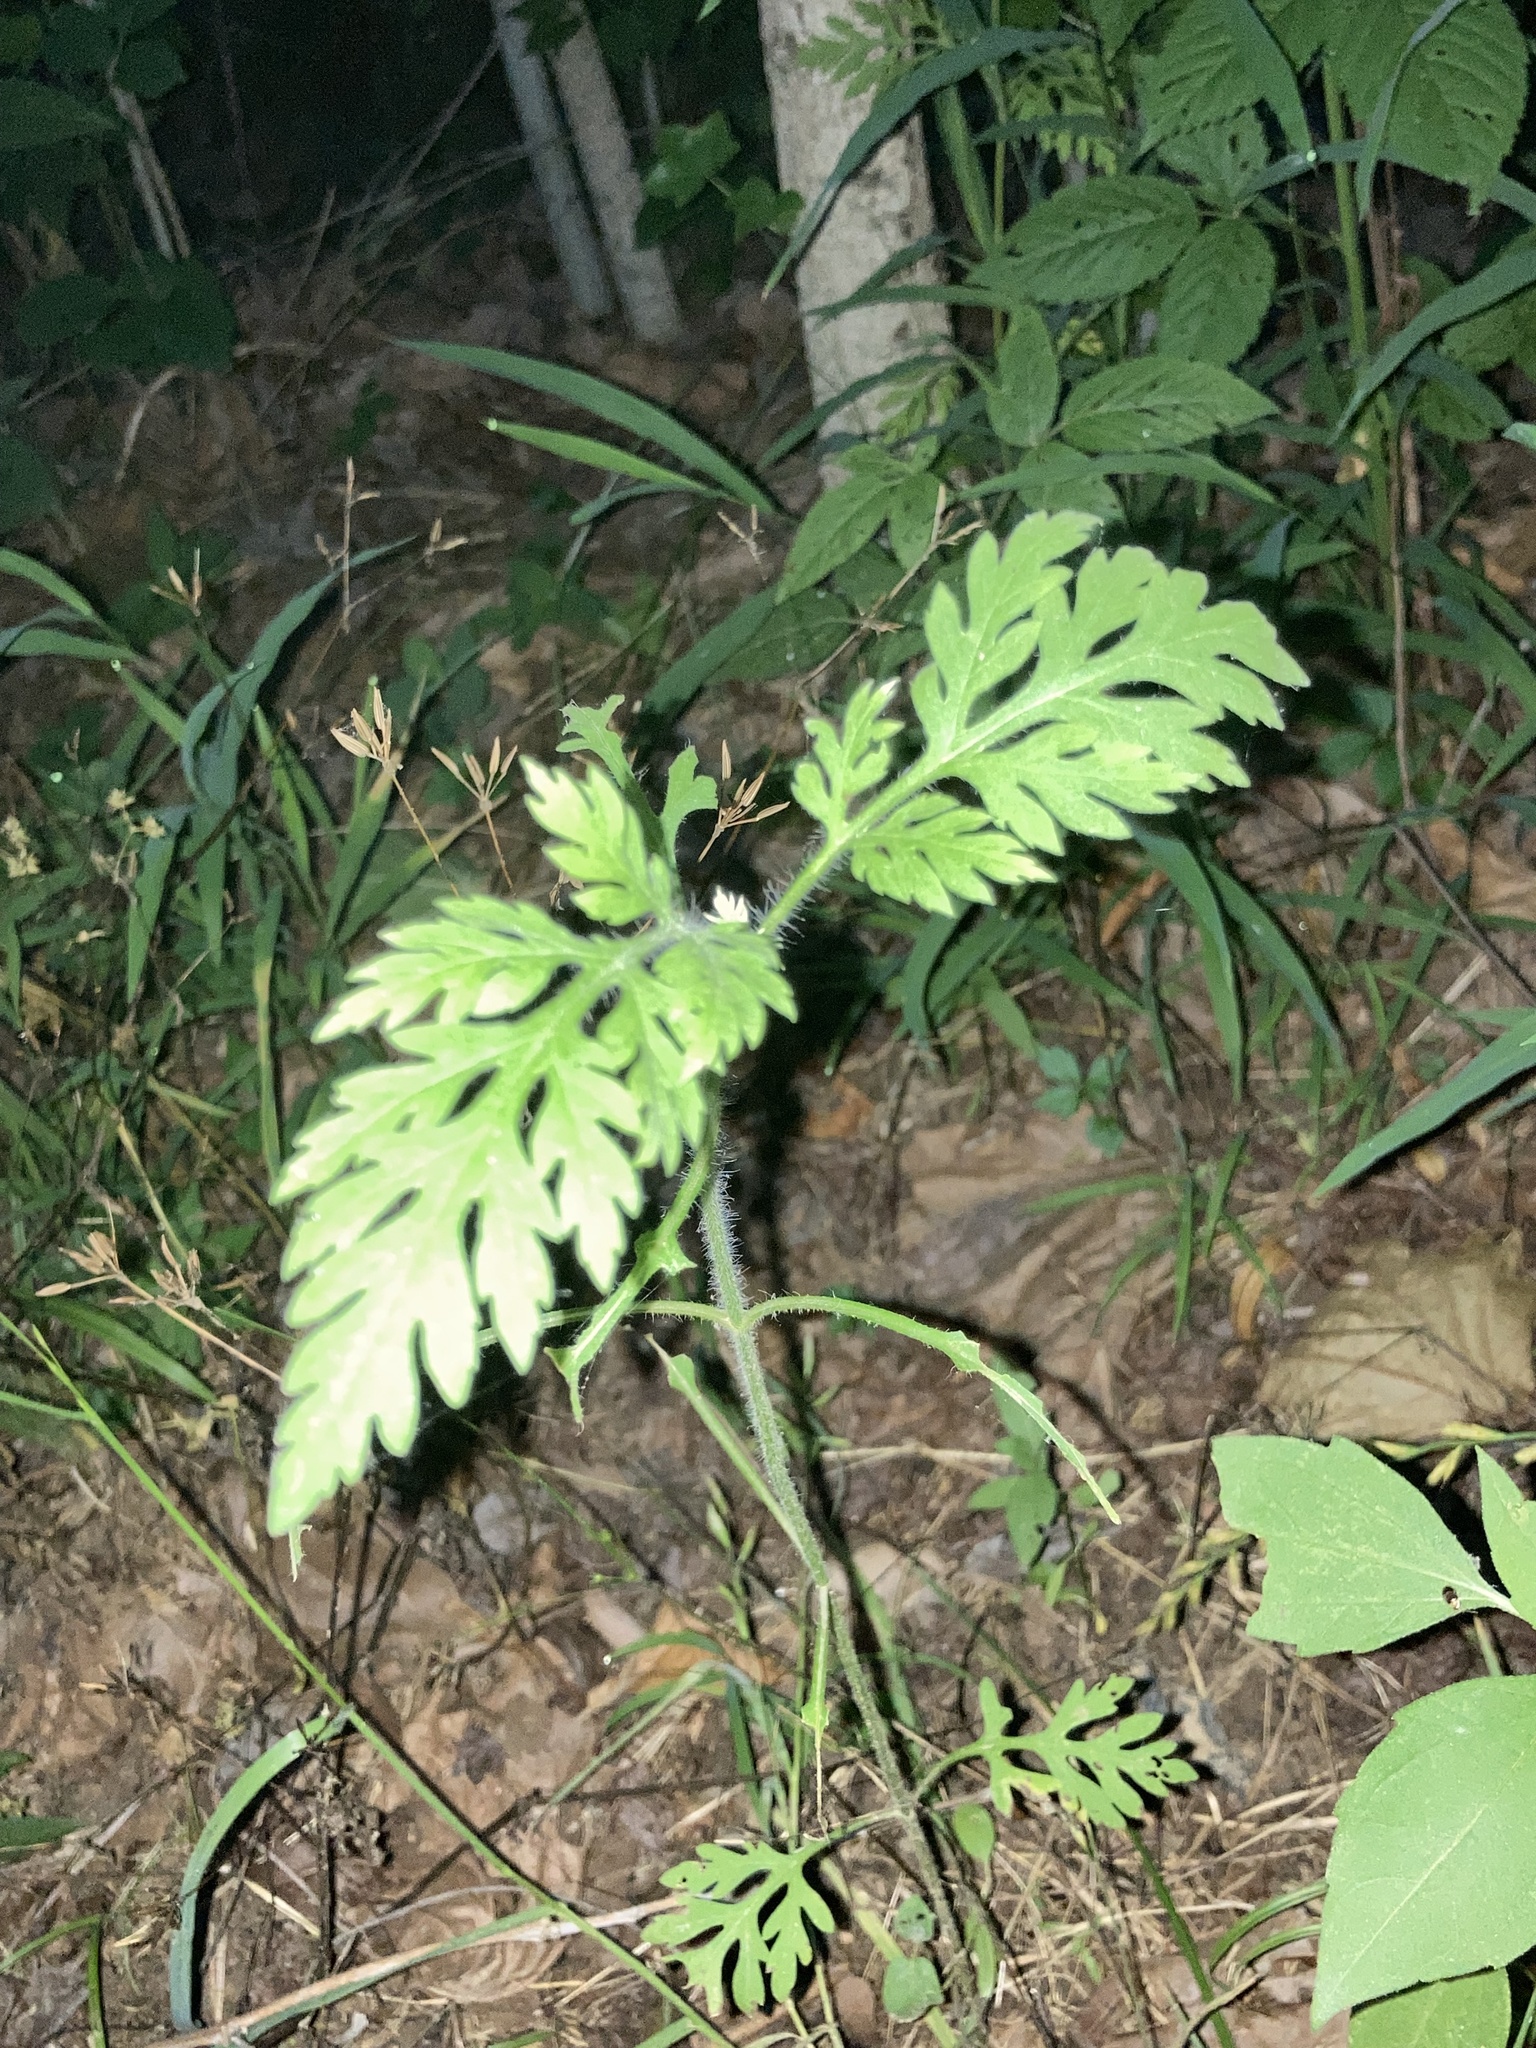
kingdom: Plantae
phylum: Tracheophyta
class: Magnoliopsida
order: Asterales
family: Asteraceae
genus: Ambrosia
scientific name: Ambrosia artemisiifolia
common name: Annual ragweed
